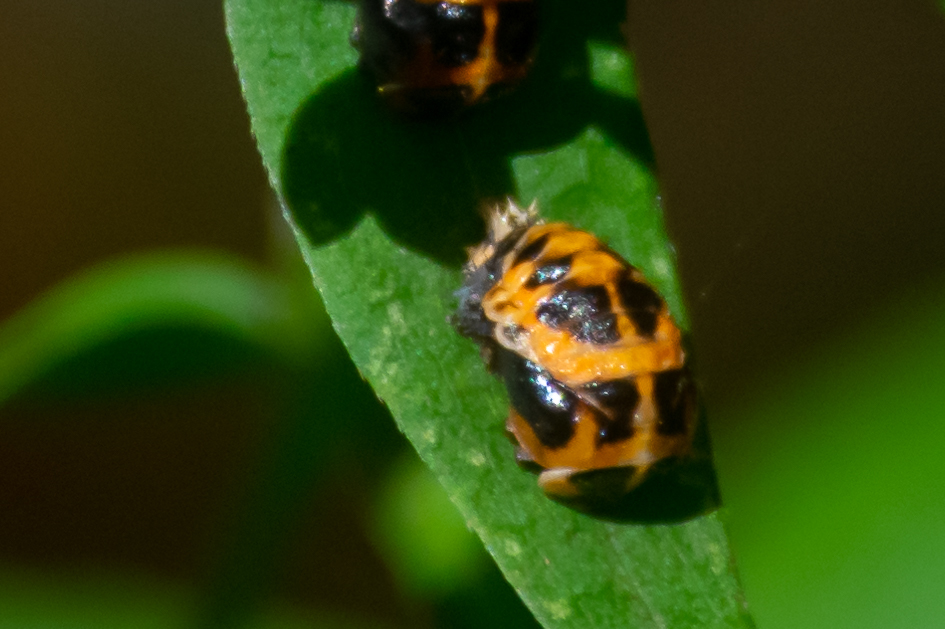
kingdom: Animalia
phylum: Arthropoda
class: Insecta
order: Coleoptera
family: Coccinellidae
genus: Harmonia
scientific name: Harmonia axyridis
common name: Harlequin ladybird
